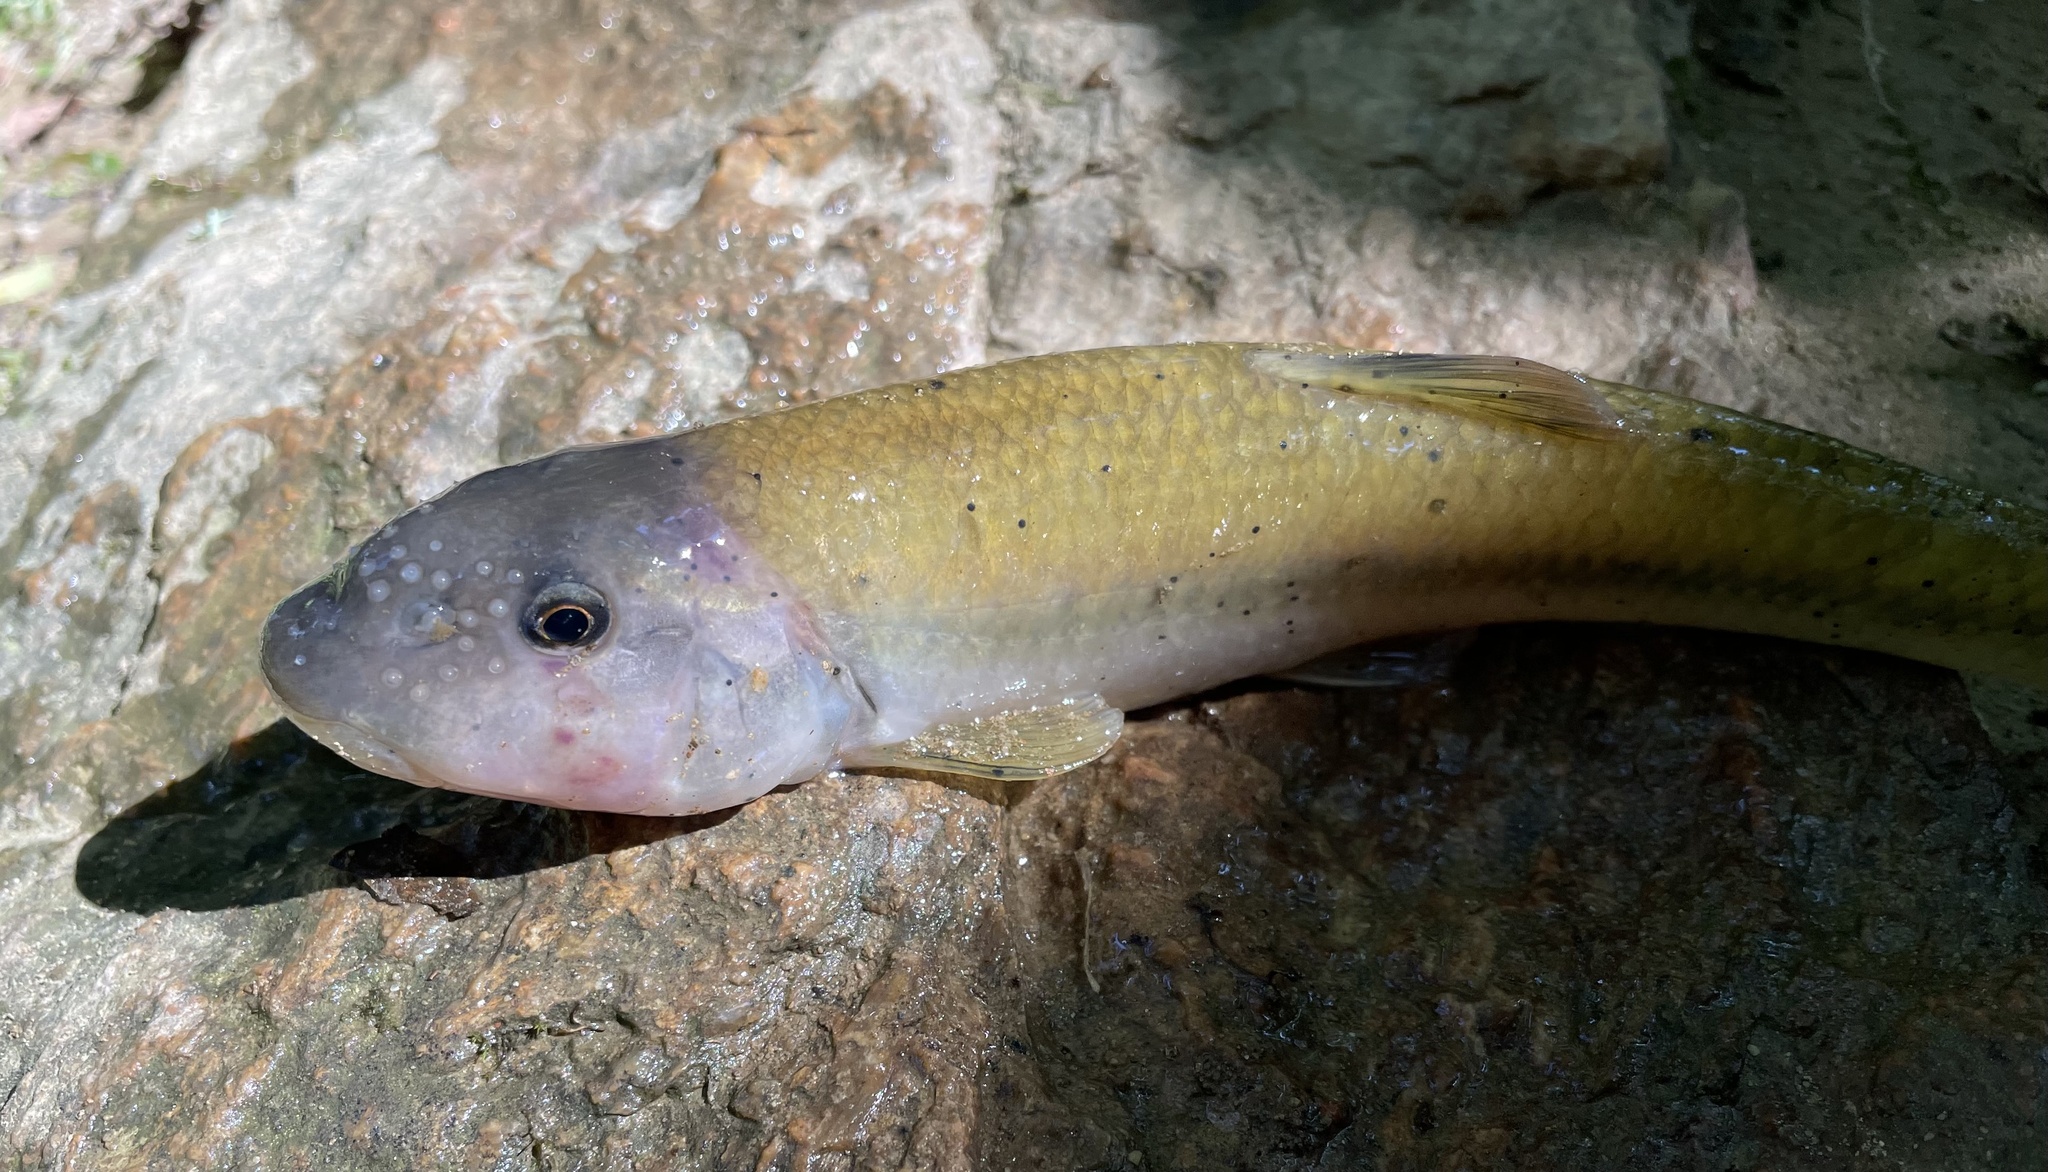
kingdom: Animalia
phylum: Chordata
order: Cypriniformes
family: Cyprinidae
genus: Nocomis
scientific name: Nocomis micropogon
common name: River chub
